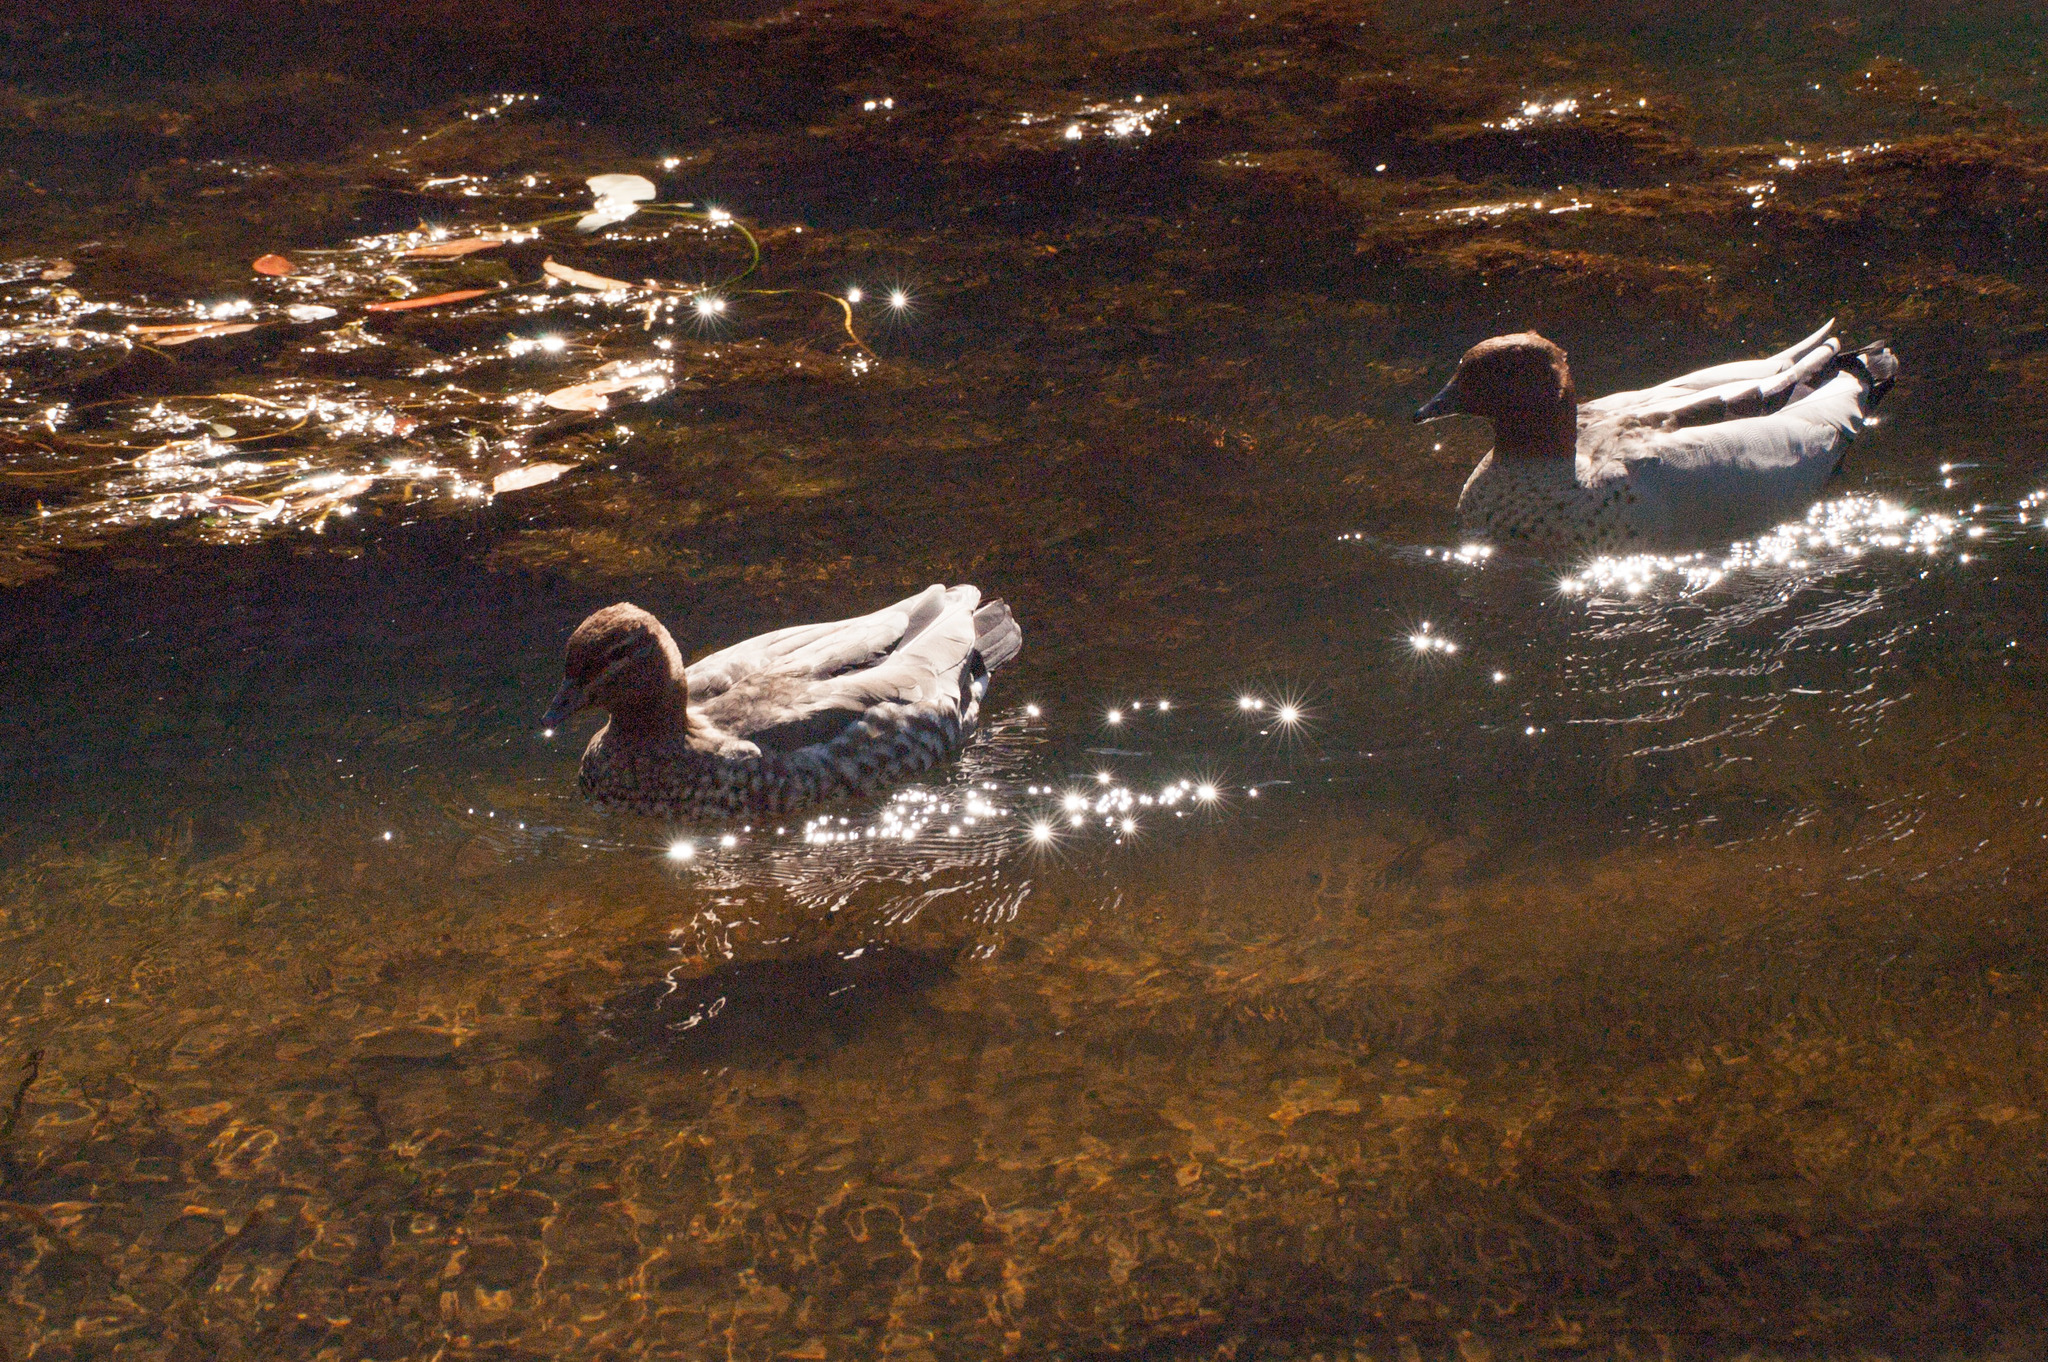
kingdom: Animalia
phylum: Chordata
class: Aves
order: Anseriformes
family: Anatidae
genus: Chenonetta
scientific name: Chenonetta jubata
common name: Maned duck
